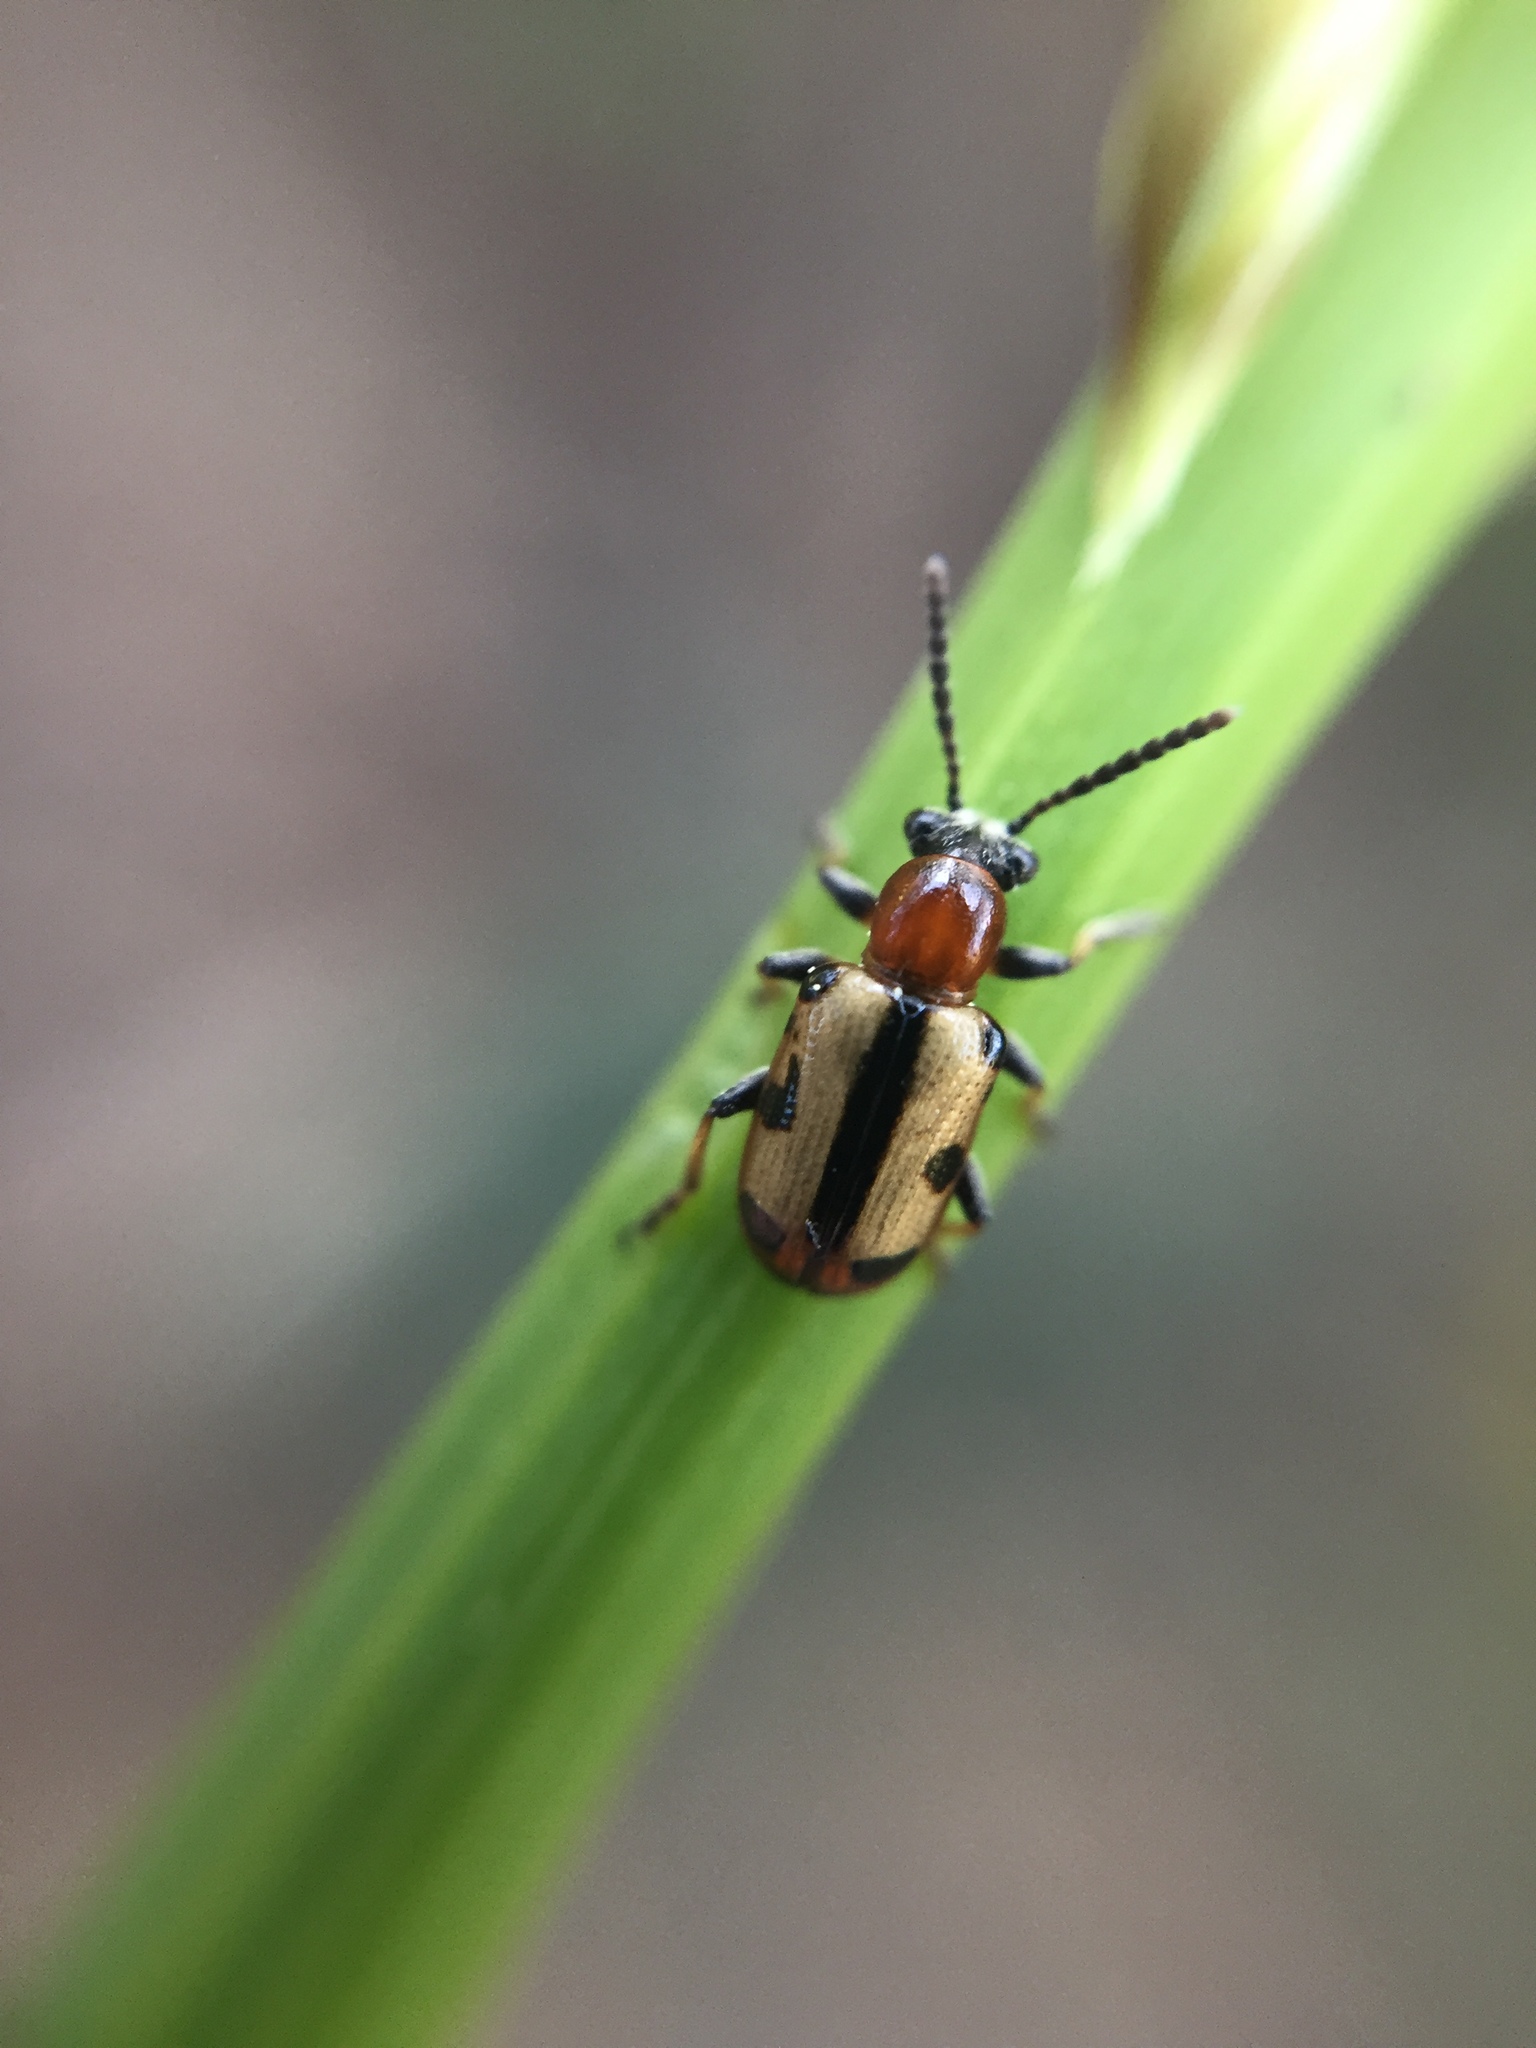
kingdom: Animalia
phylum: Arthropoda
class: Insecta
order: Coleoptera
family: Chrysomelidae
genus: Crioceris
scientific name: Crioceris paracenthesis
